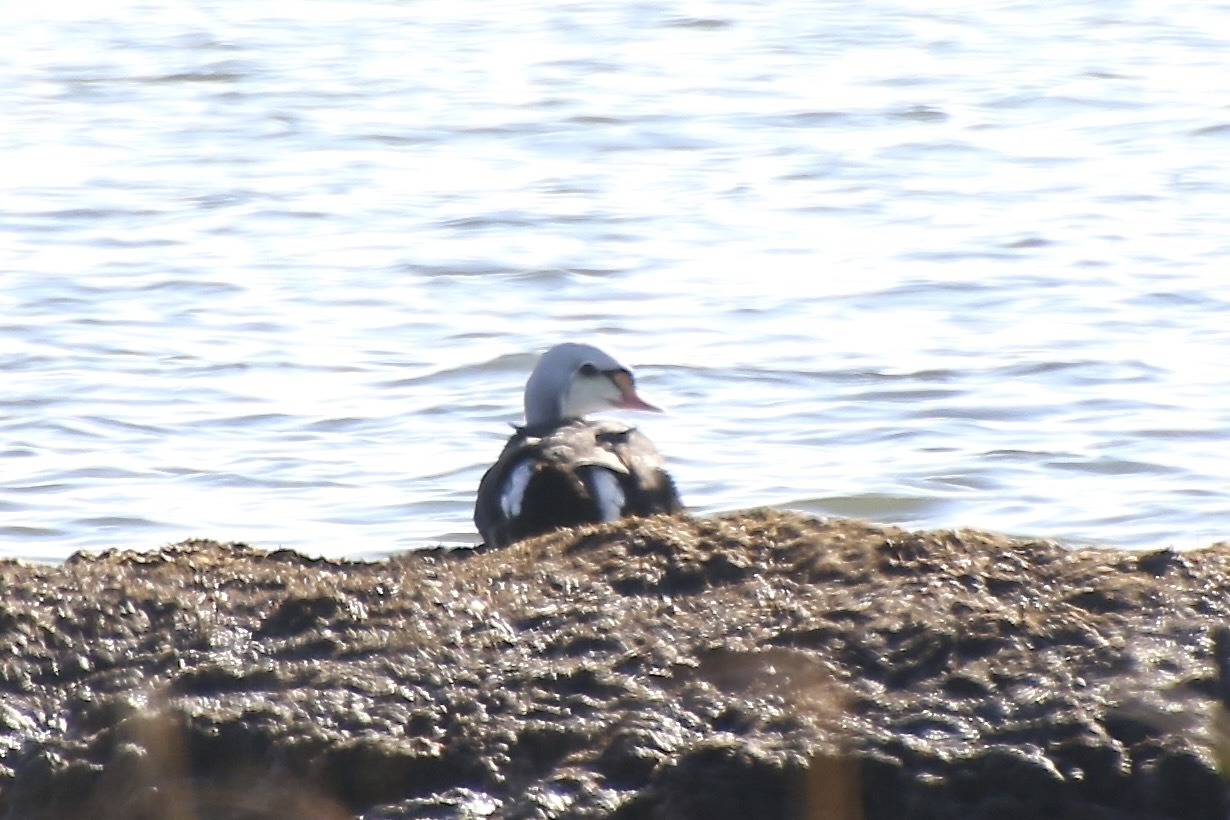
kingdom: Animalia
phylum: Chordata
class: Aves
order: Anseriformes
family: Anatidae
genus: Somateria
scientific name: Somateria spectabilis
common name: King eider
